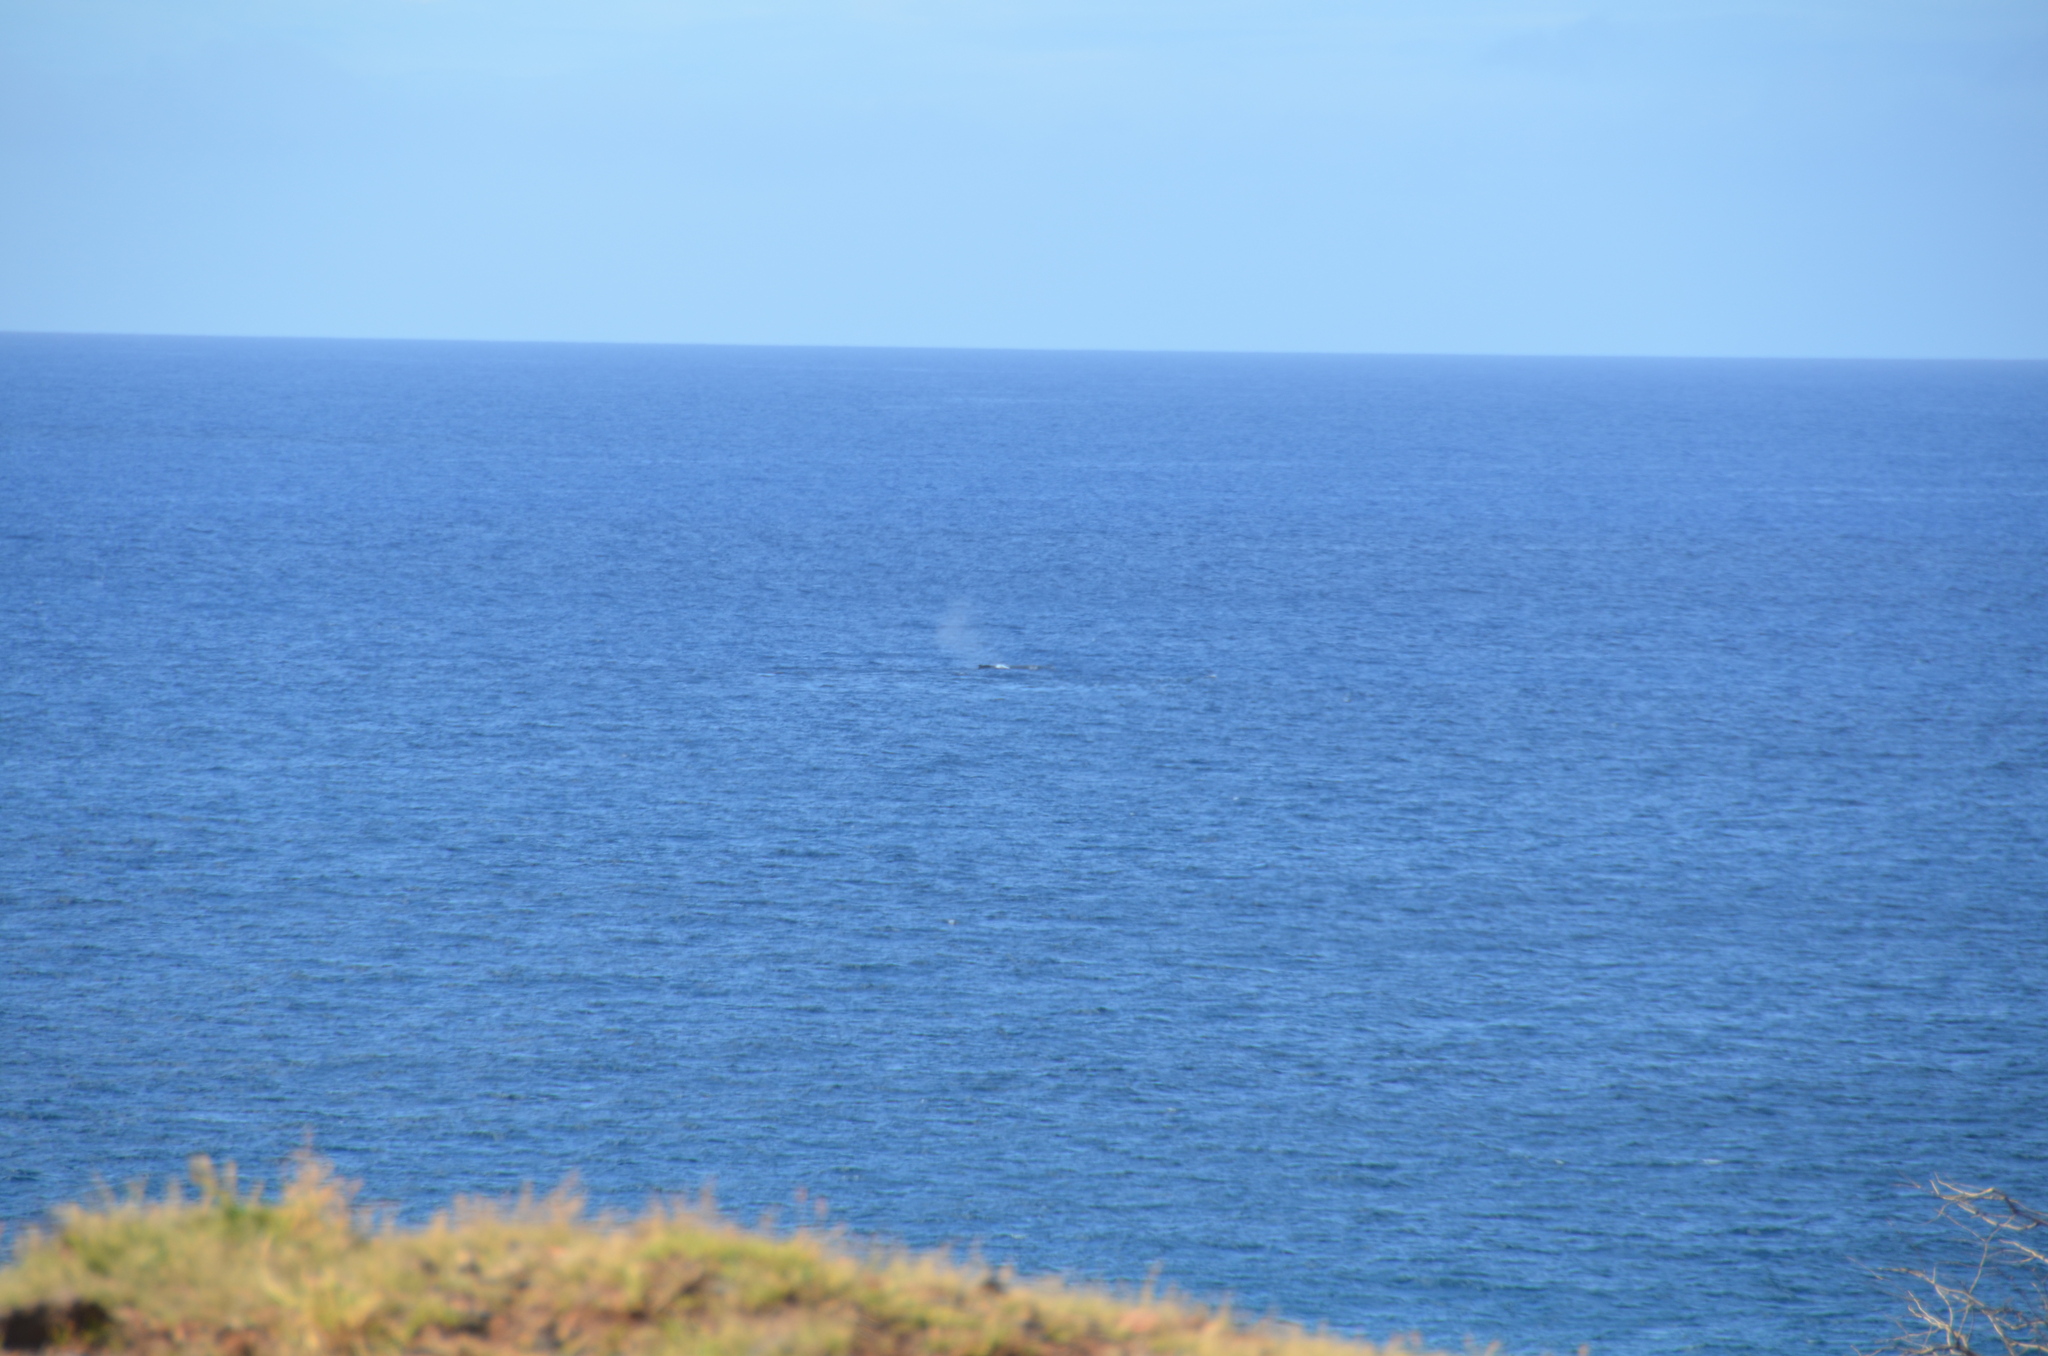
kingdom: Animalia
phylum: Chordata
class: Mammalia
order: Cetacea
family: Balaenopteridae
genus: Megaptera
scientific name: Megaptera novaeangliae
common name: Humpback whale
